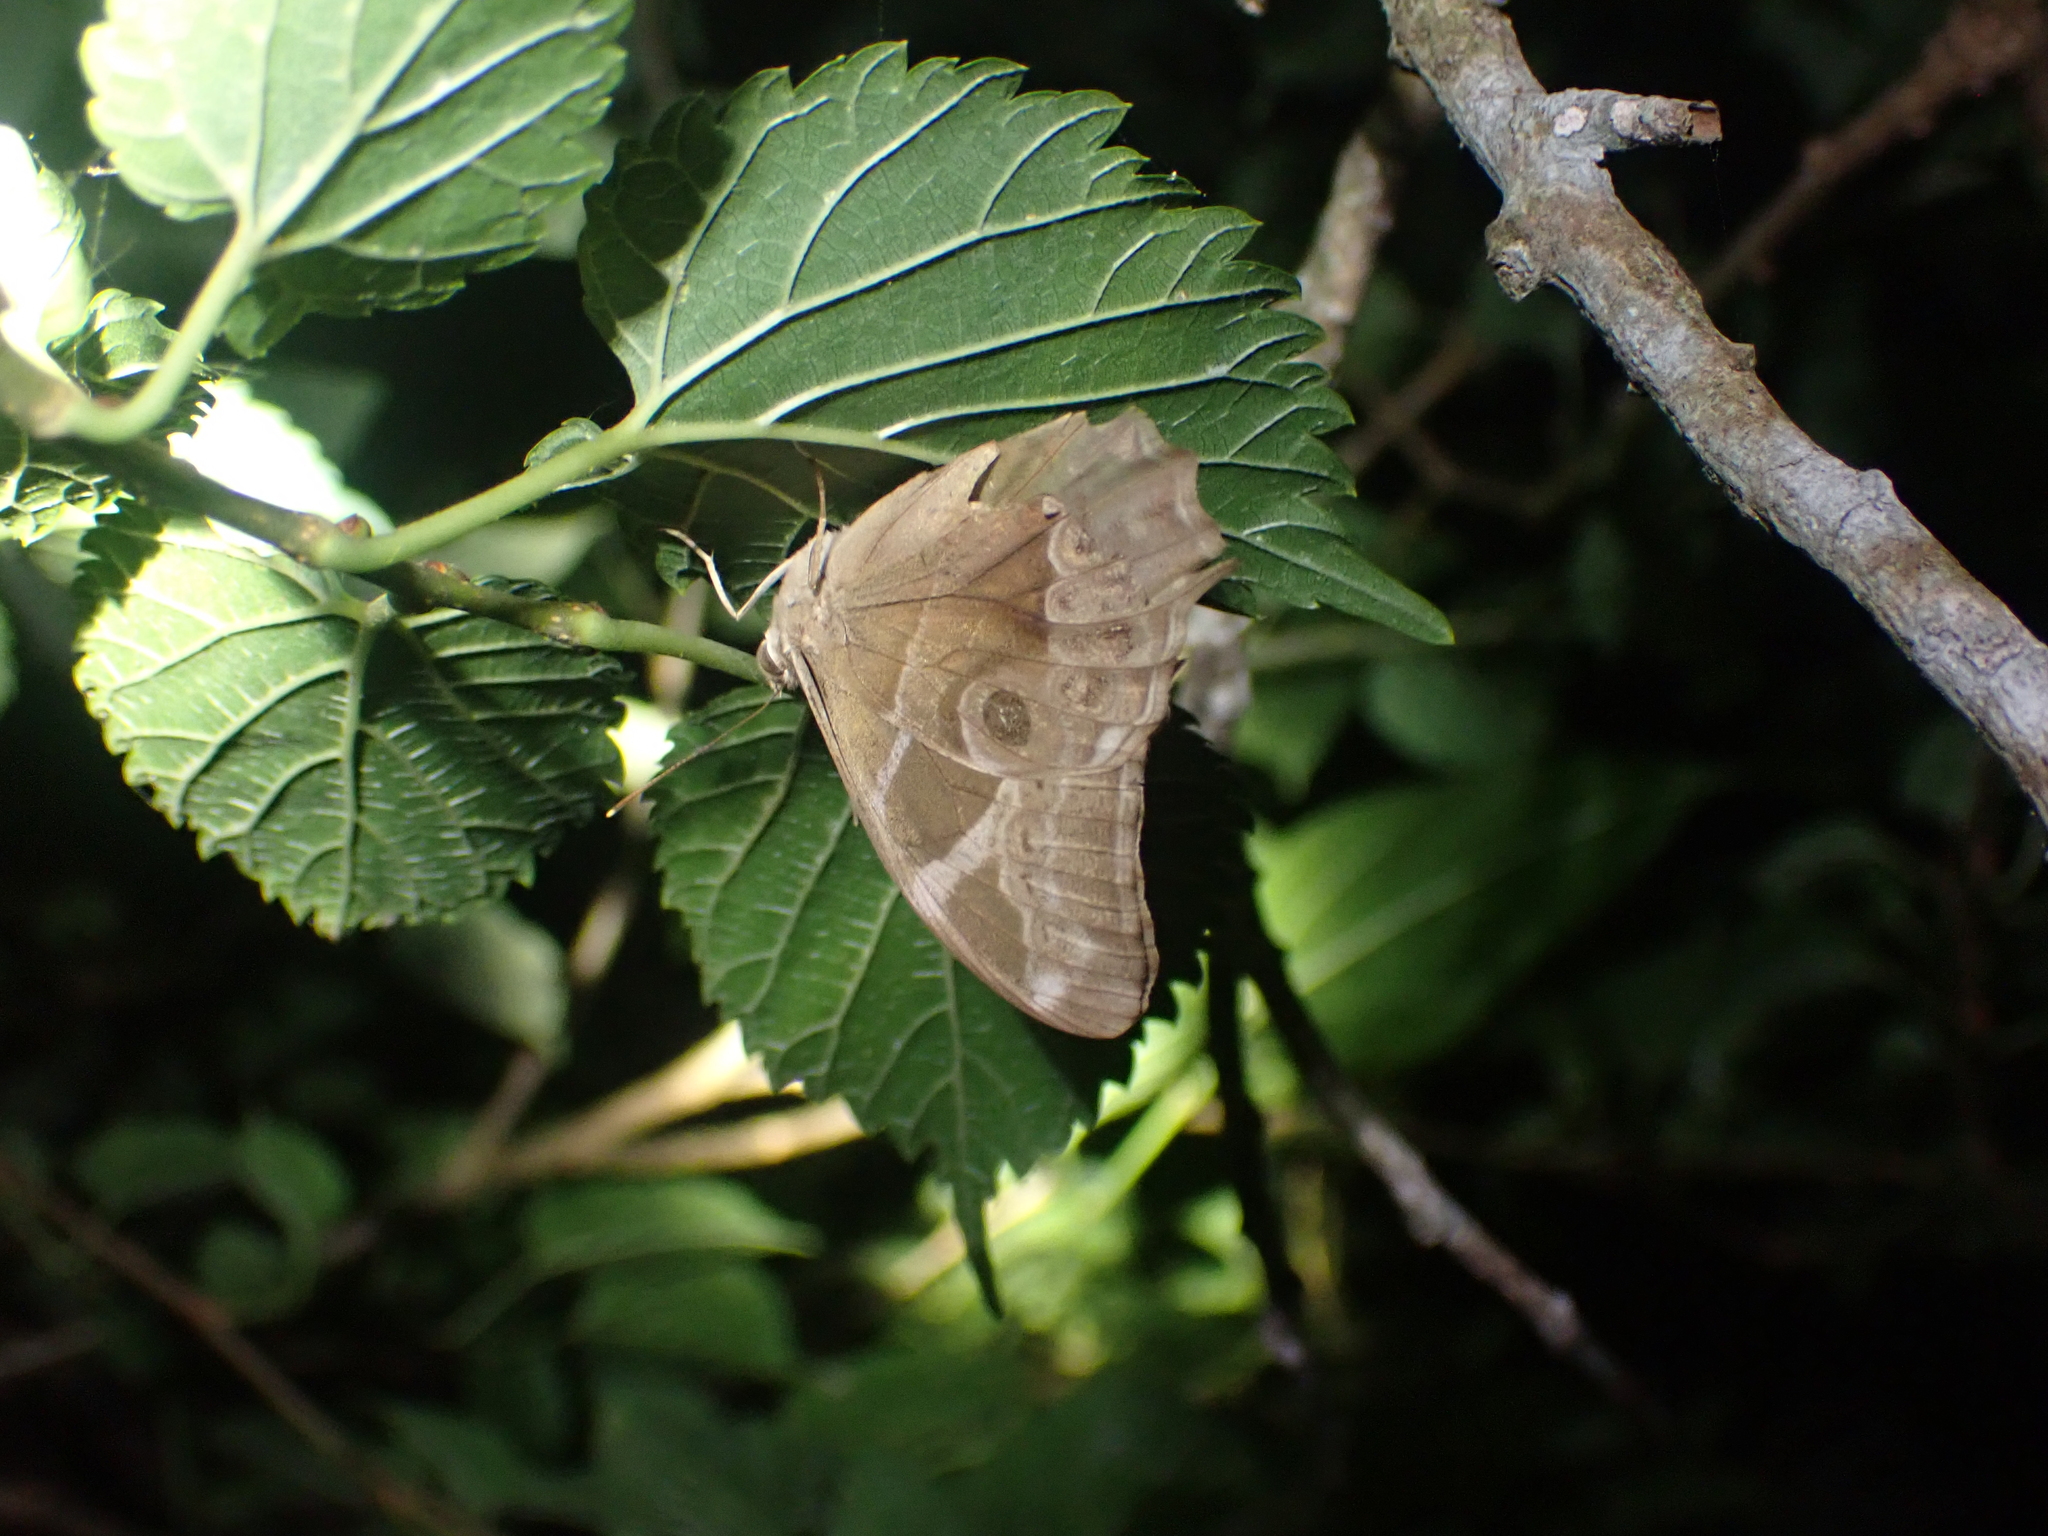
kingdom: Animalia
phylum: Arthropoda
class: Insecta
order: Lepidoptera
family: Nymphalidae
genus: Lethe
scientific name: Lethe europa
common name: Bamboo treebrown
